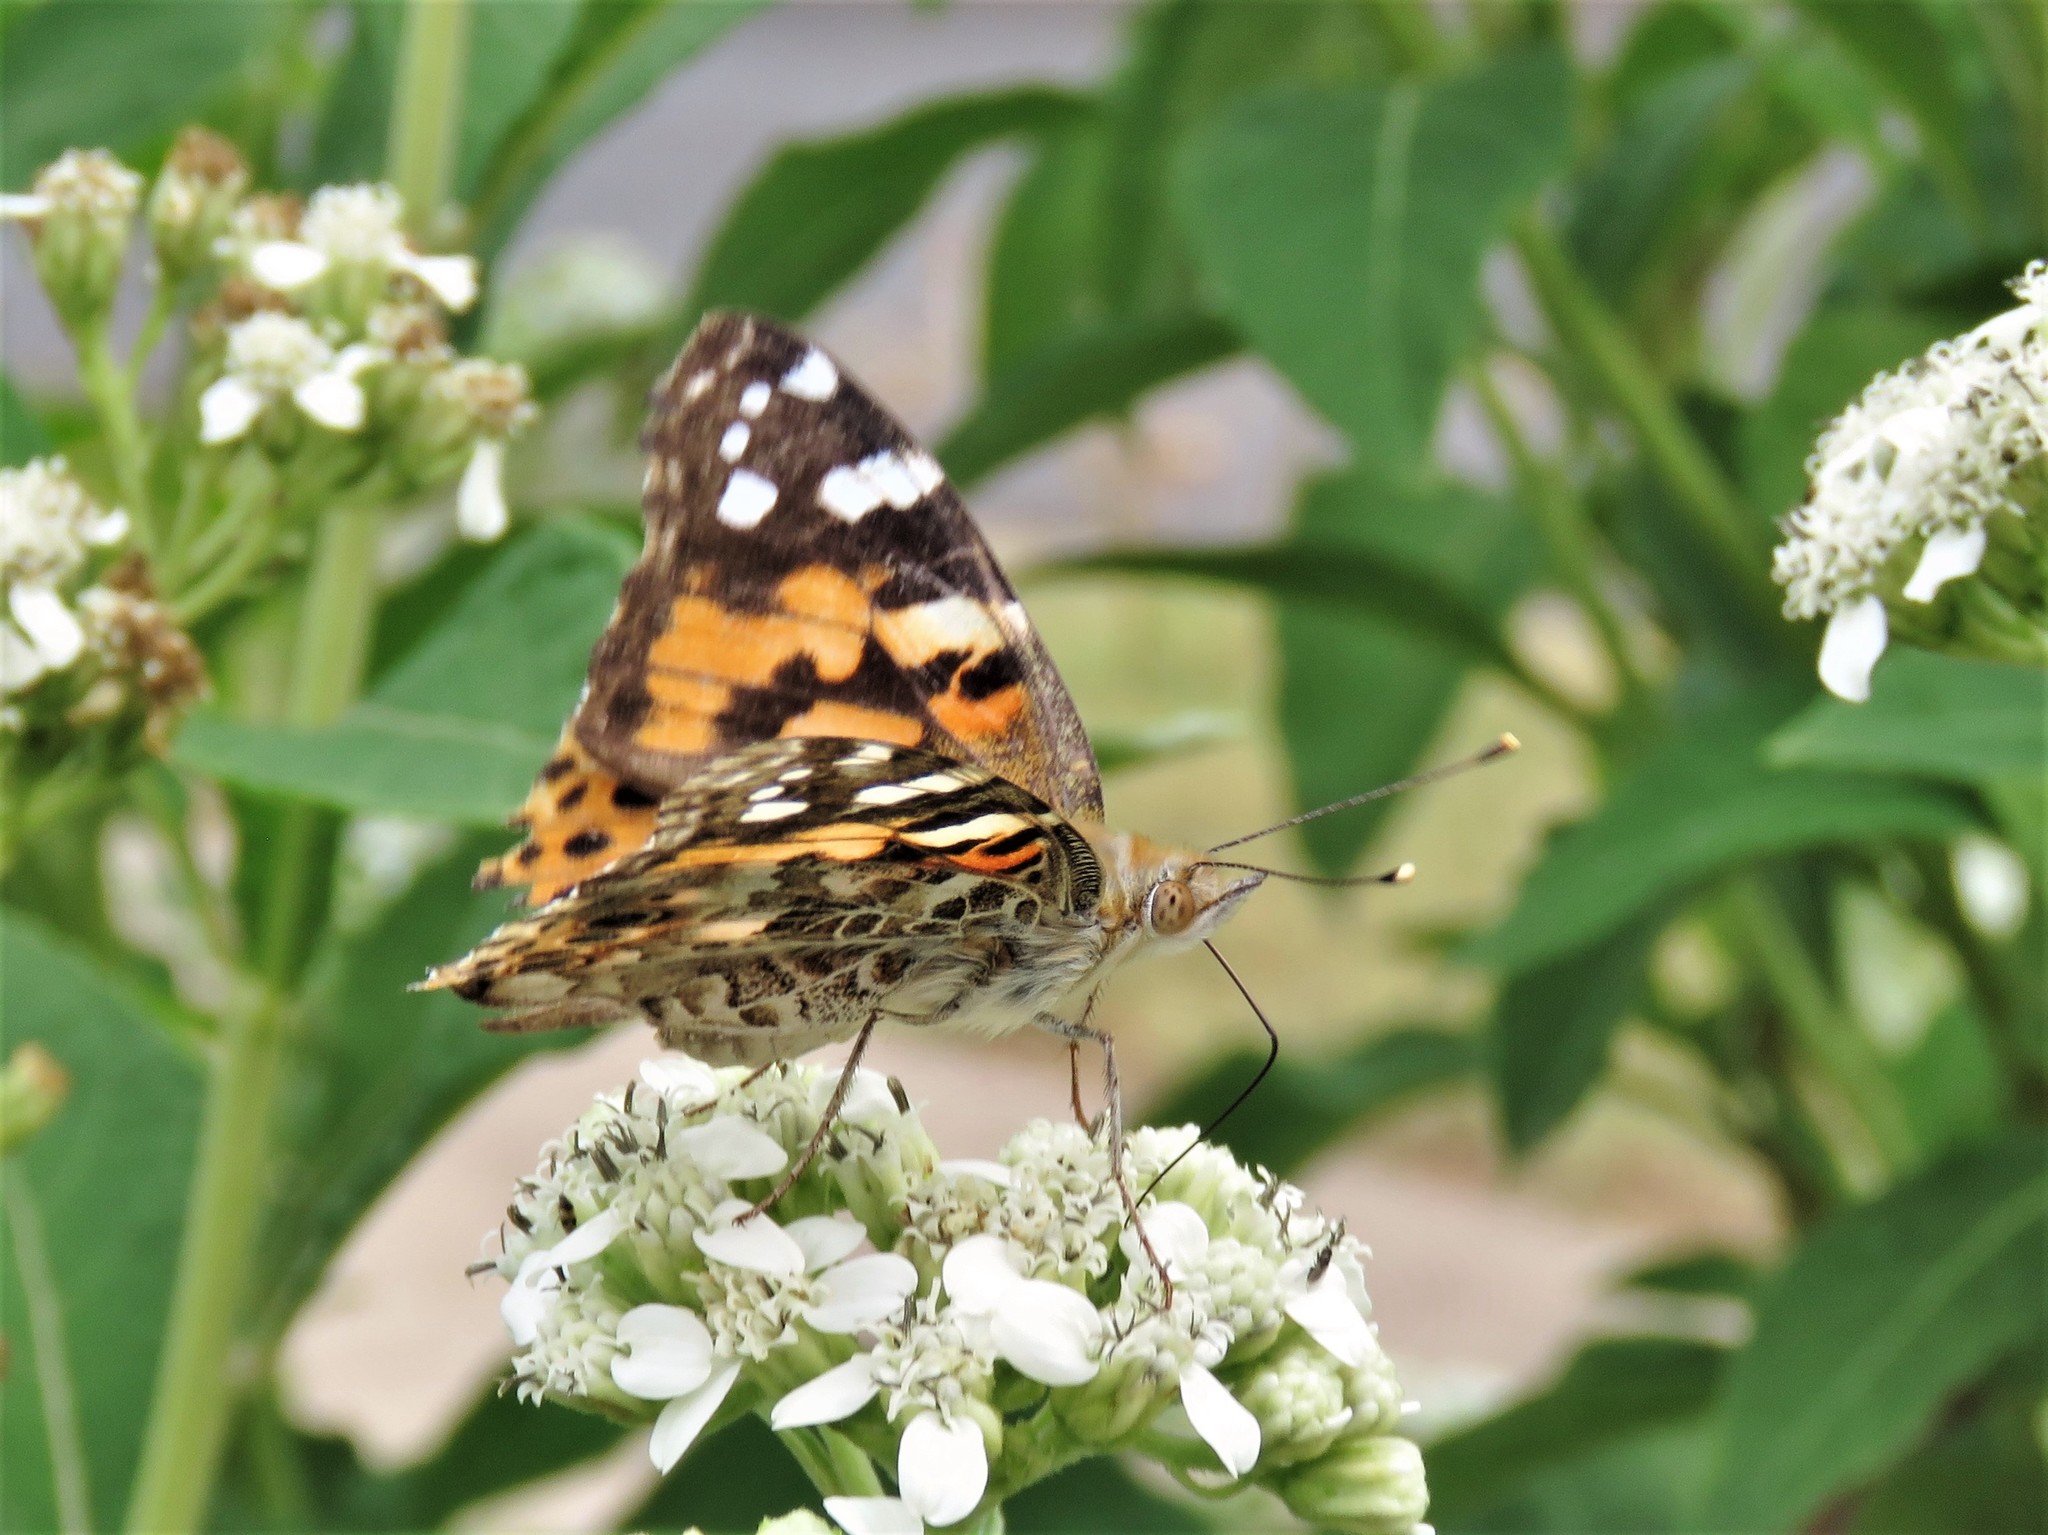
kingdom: Animalia
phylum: Arthropoda
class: Insecta
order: Lepidoptera
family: Nymphalidae
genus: Vanessa
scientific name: Vanessa cardui
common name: Painted lady
